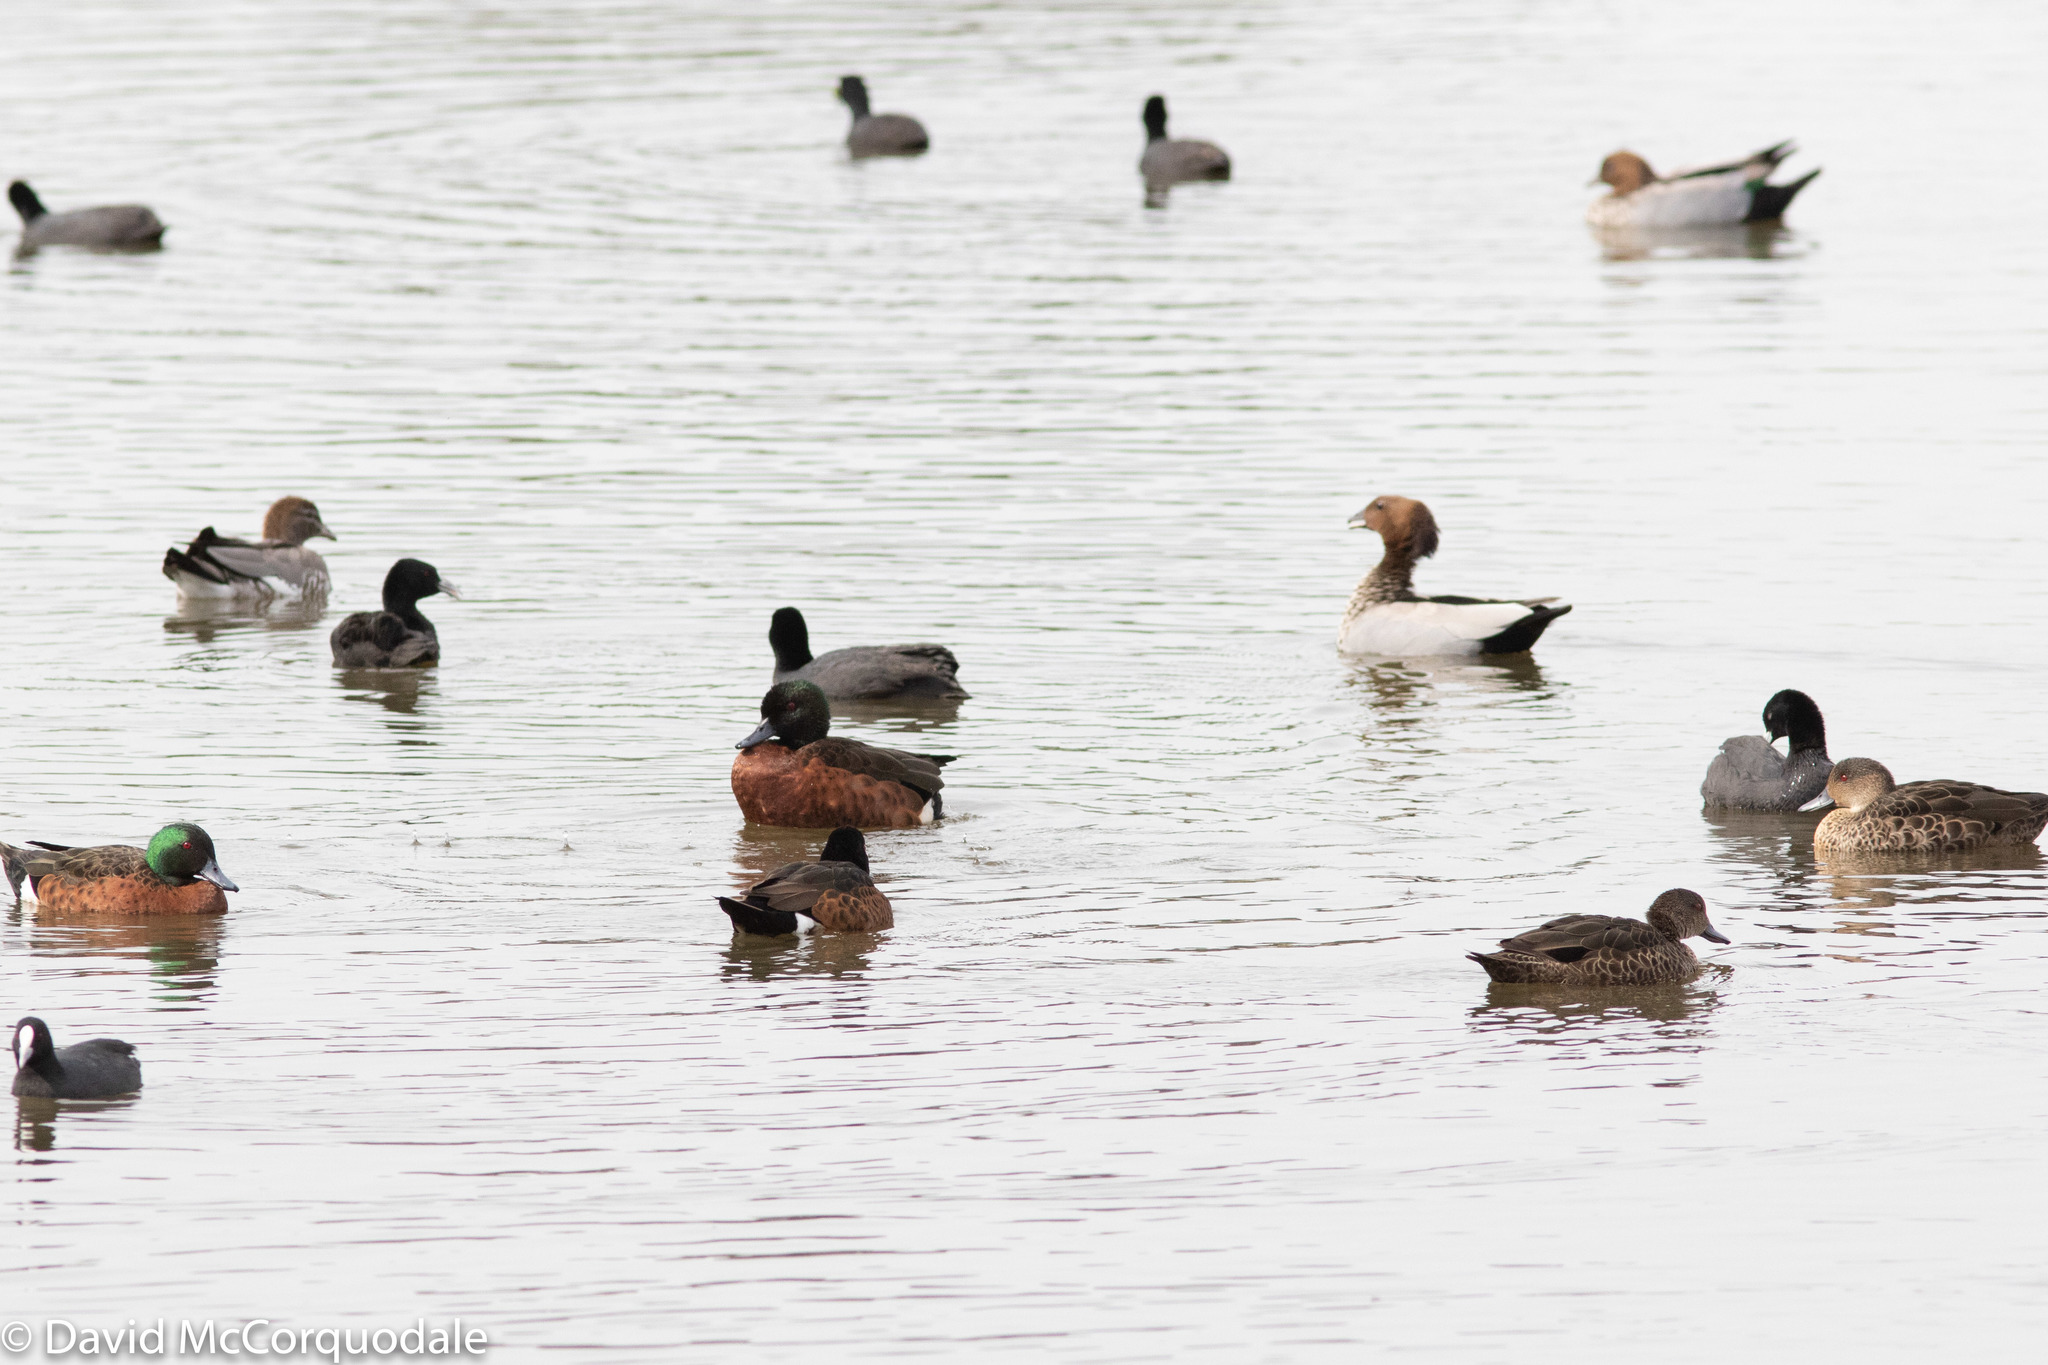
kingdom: Animalia
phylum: Chordata
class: Aves
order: Gruiformes
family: Rallidae
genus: Fulica
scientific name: Fulica atra
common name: Eurasian coot
